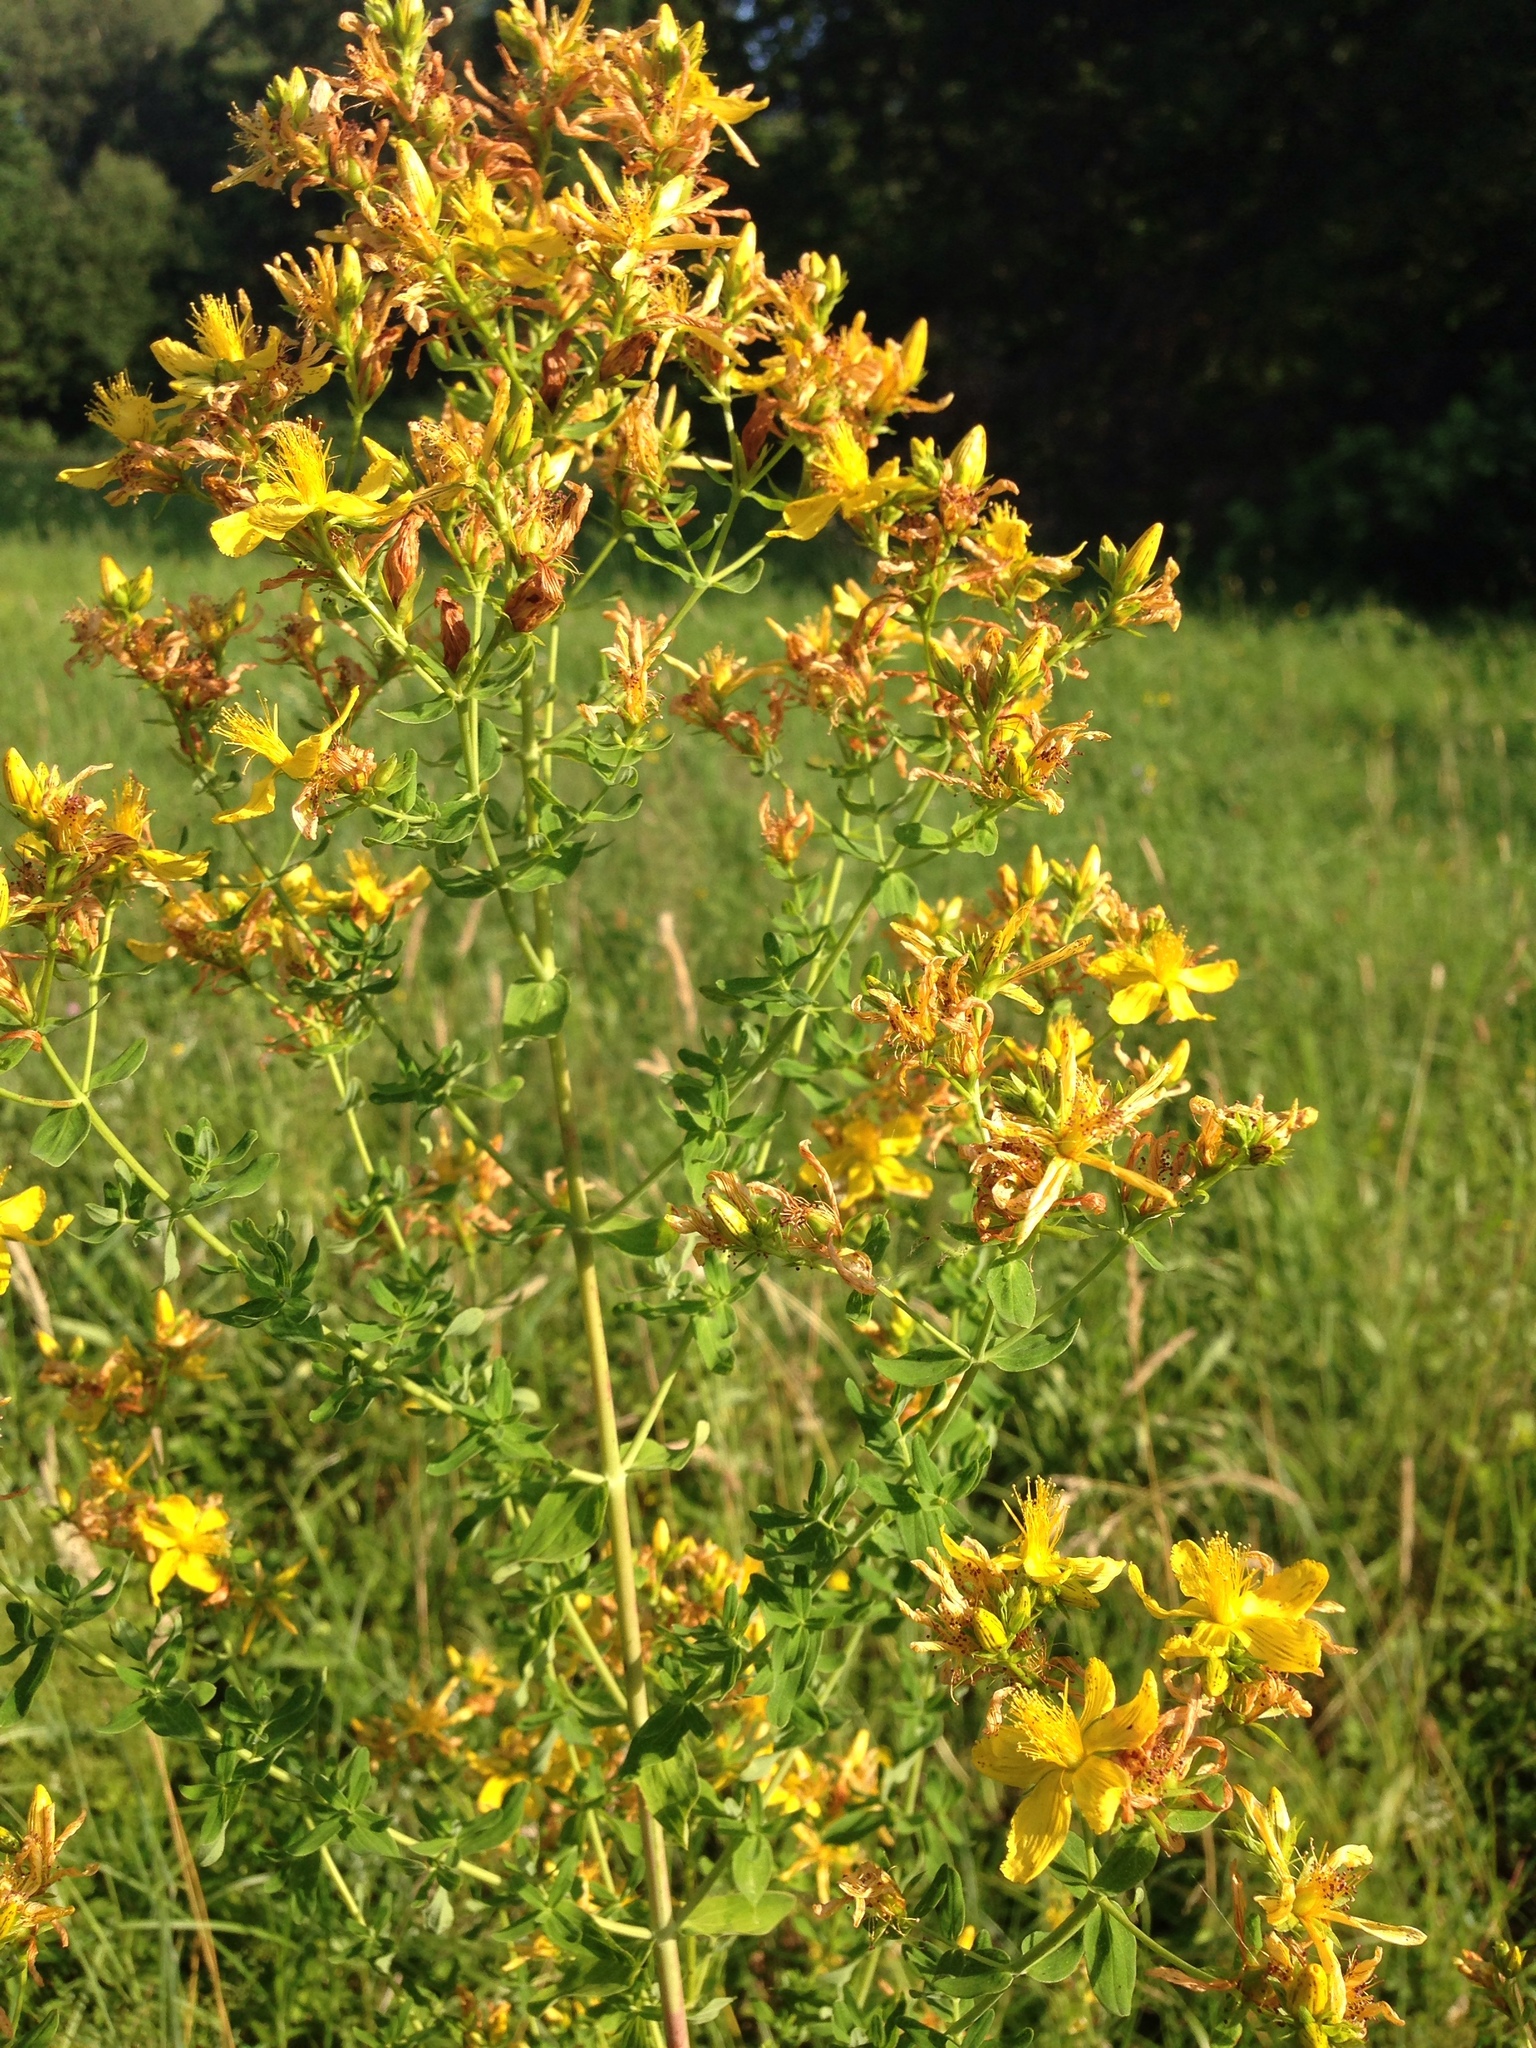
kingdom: Plantae
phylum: Tracheophyta
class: Magnoliopsida
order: Malpighiales
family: Hypericaceae
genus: Hypericum
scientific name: Hypericum perforatum
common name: Common st. johnswort
